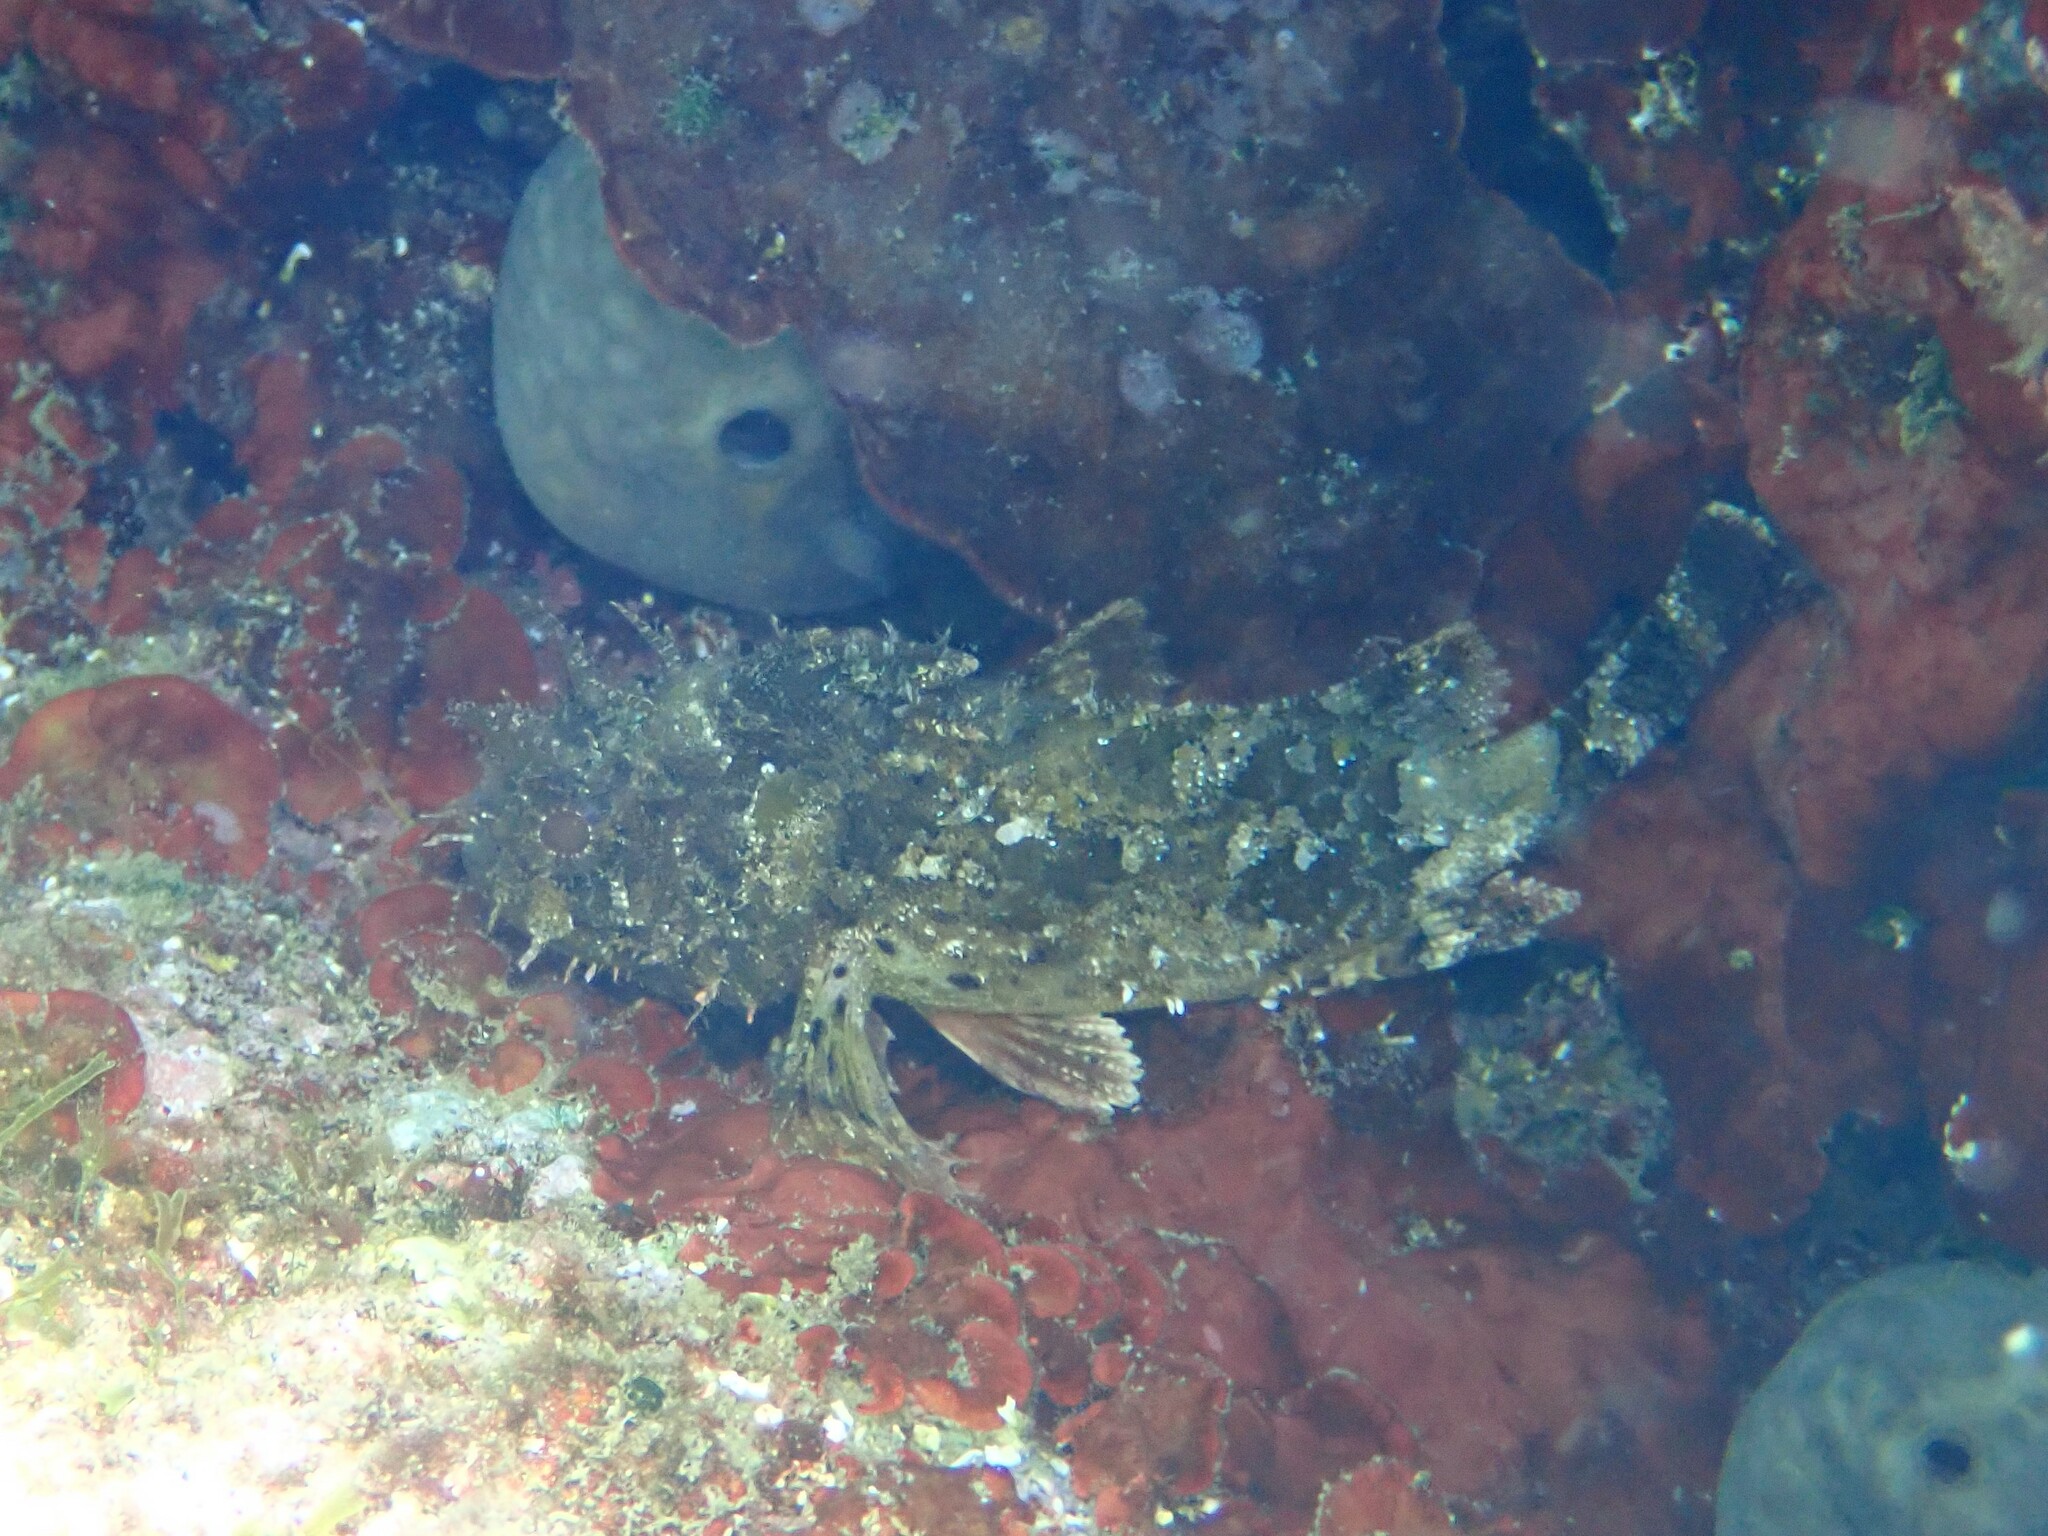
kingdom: Animalia
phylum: Chordata
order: Scorpaeniformes
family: Scorpaenidae
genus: Scorpaena
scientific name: Scorpaena porcus
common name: Black scorpionfish
